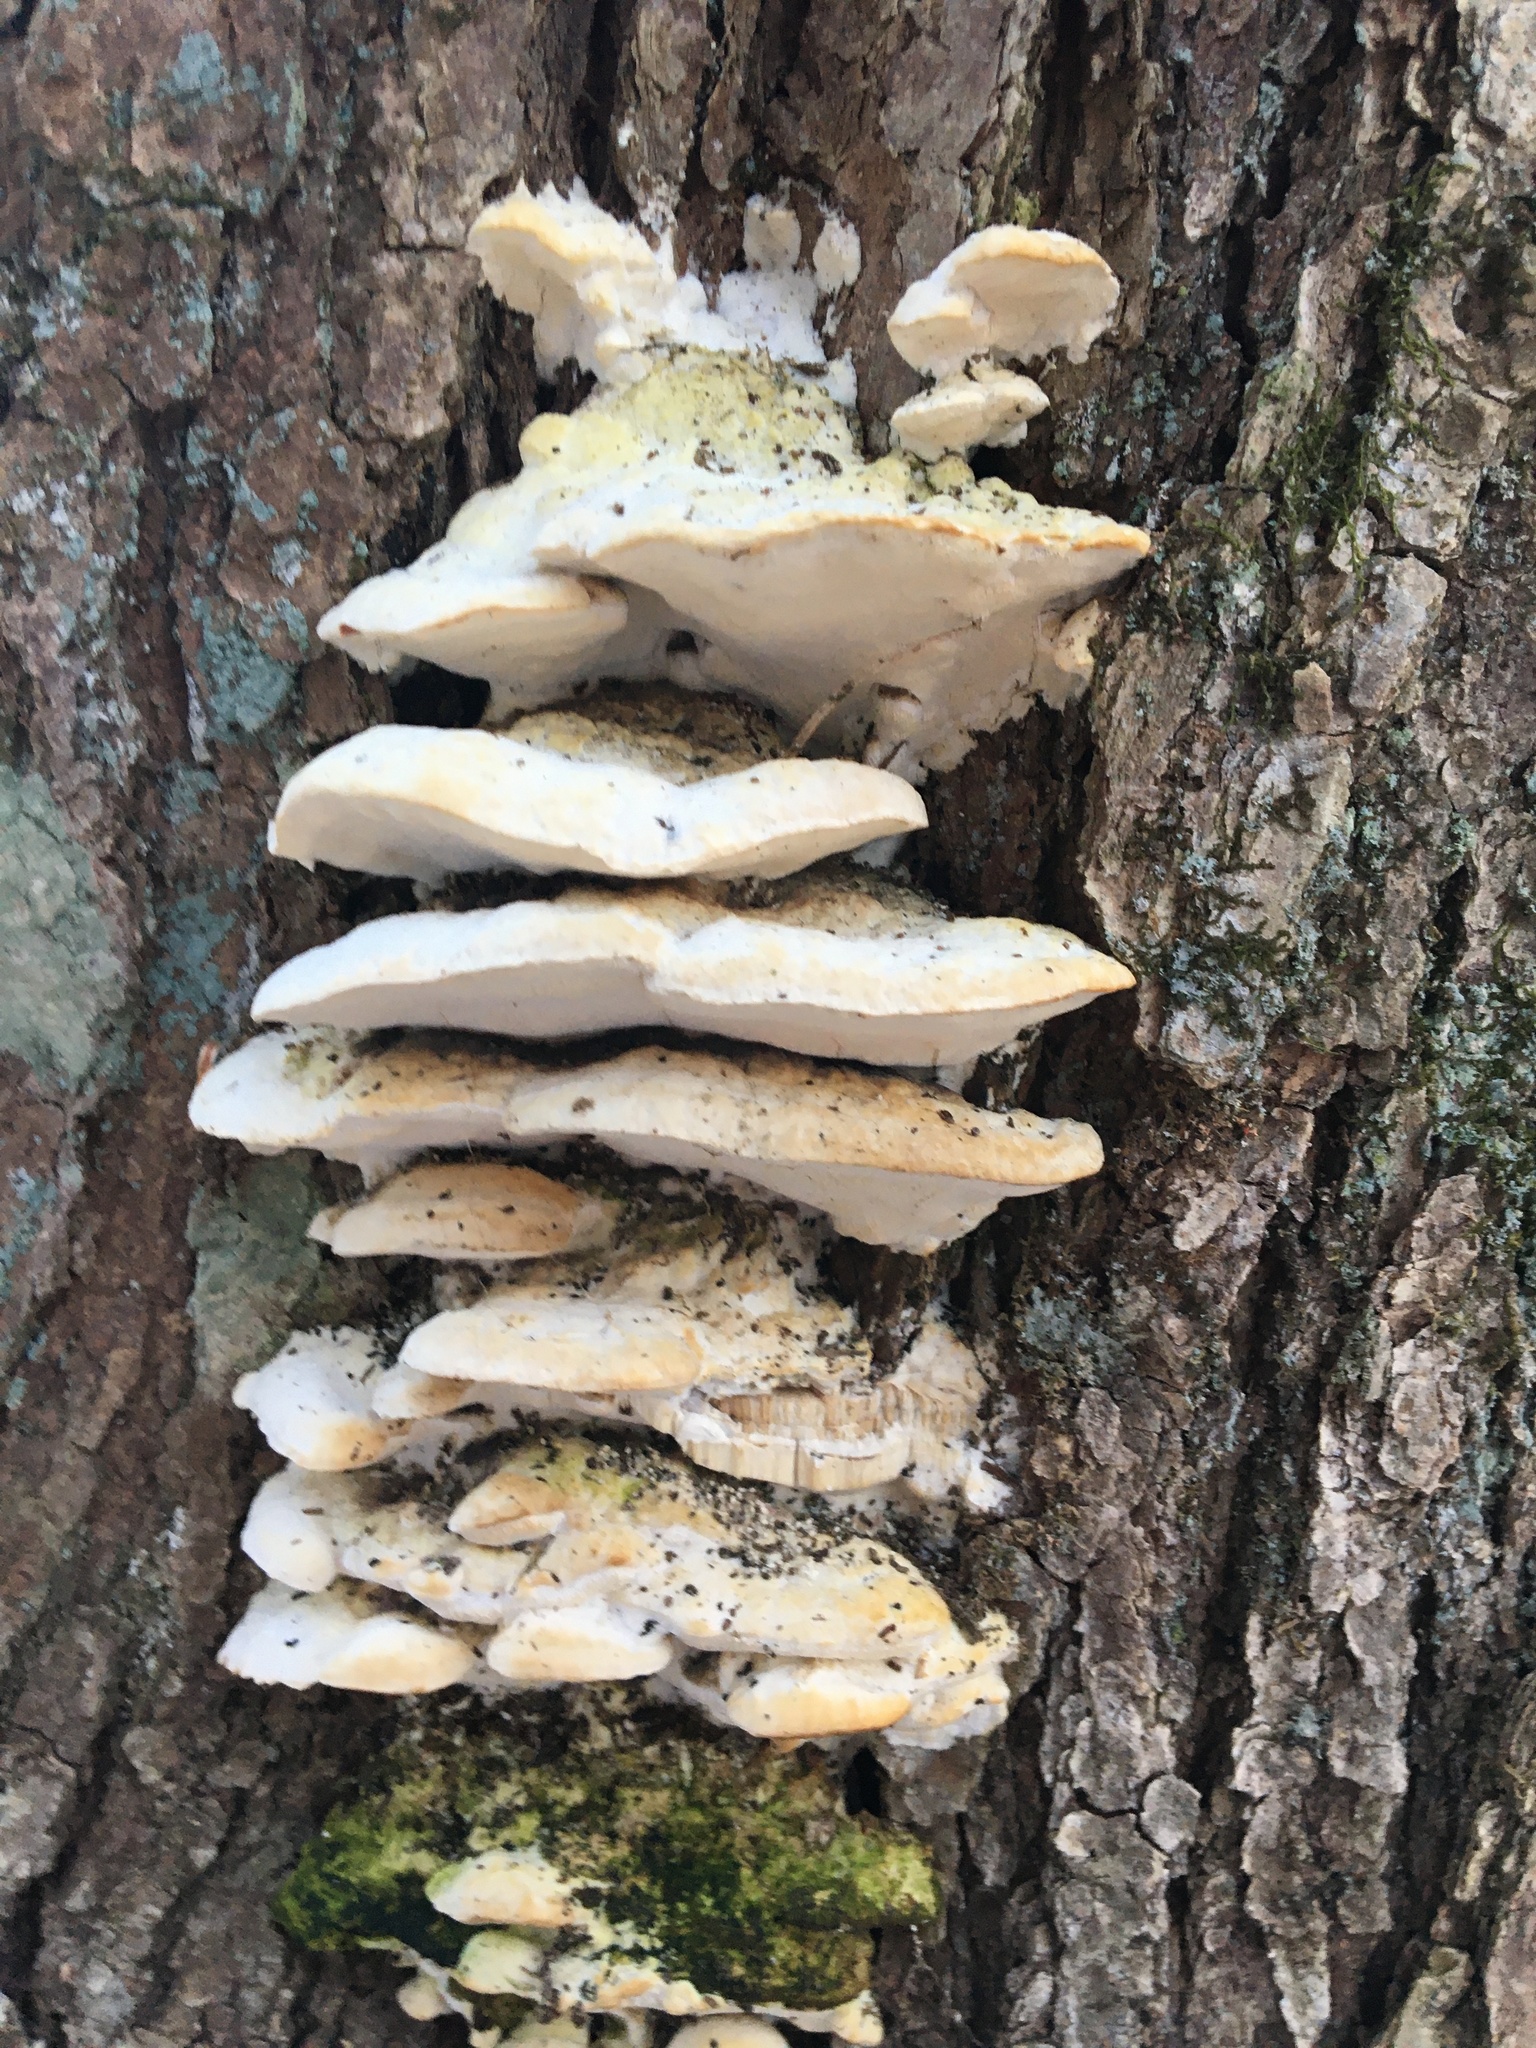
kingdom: Fungi
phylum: Basidiomycota
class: Agaricomycetes
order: Hymenochaetales
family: Oxyporaceae
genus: Oxyporus
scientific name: Oxyporus populinus
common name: Poplar bracket
